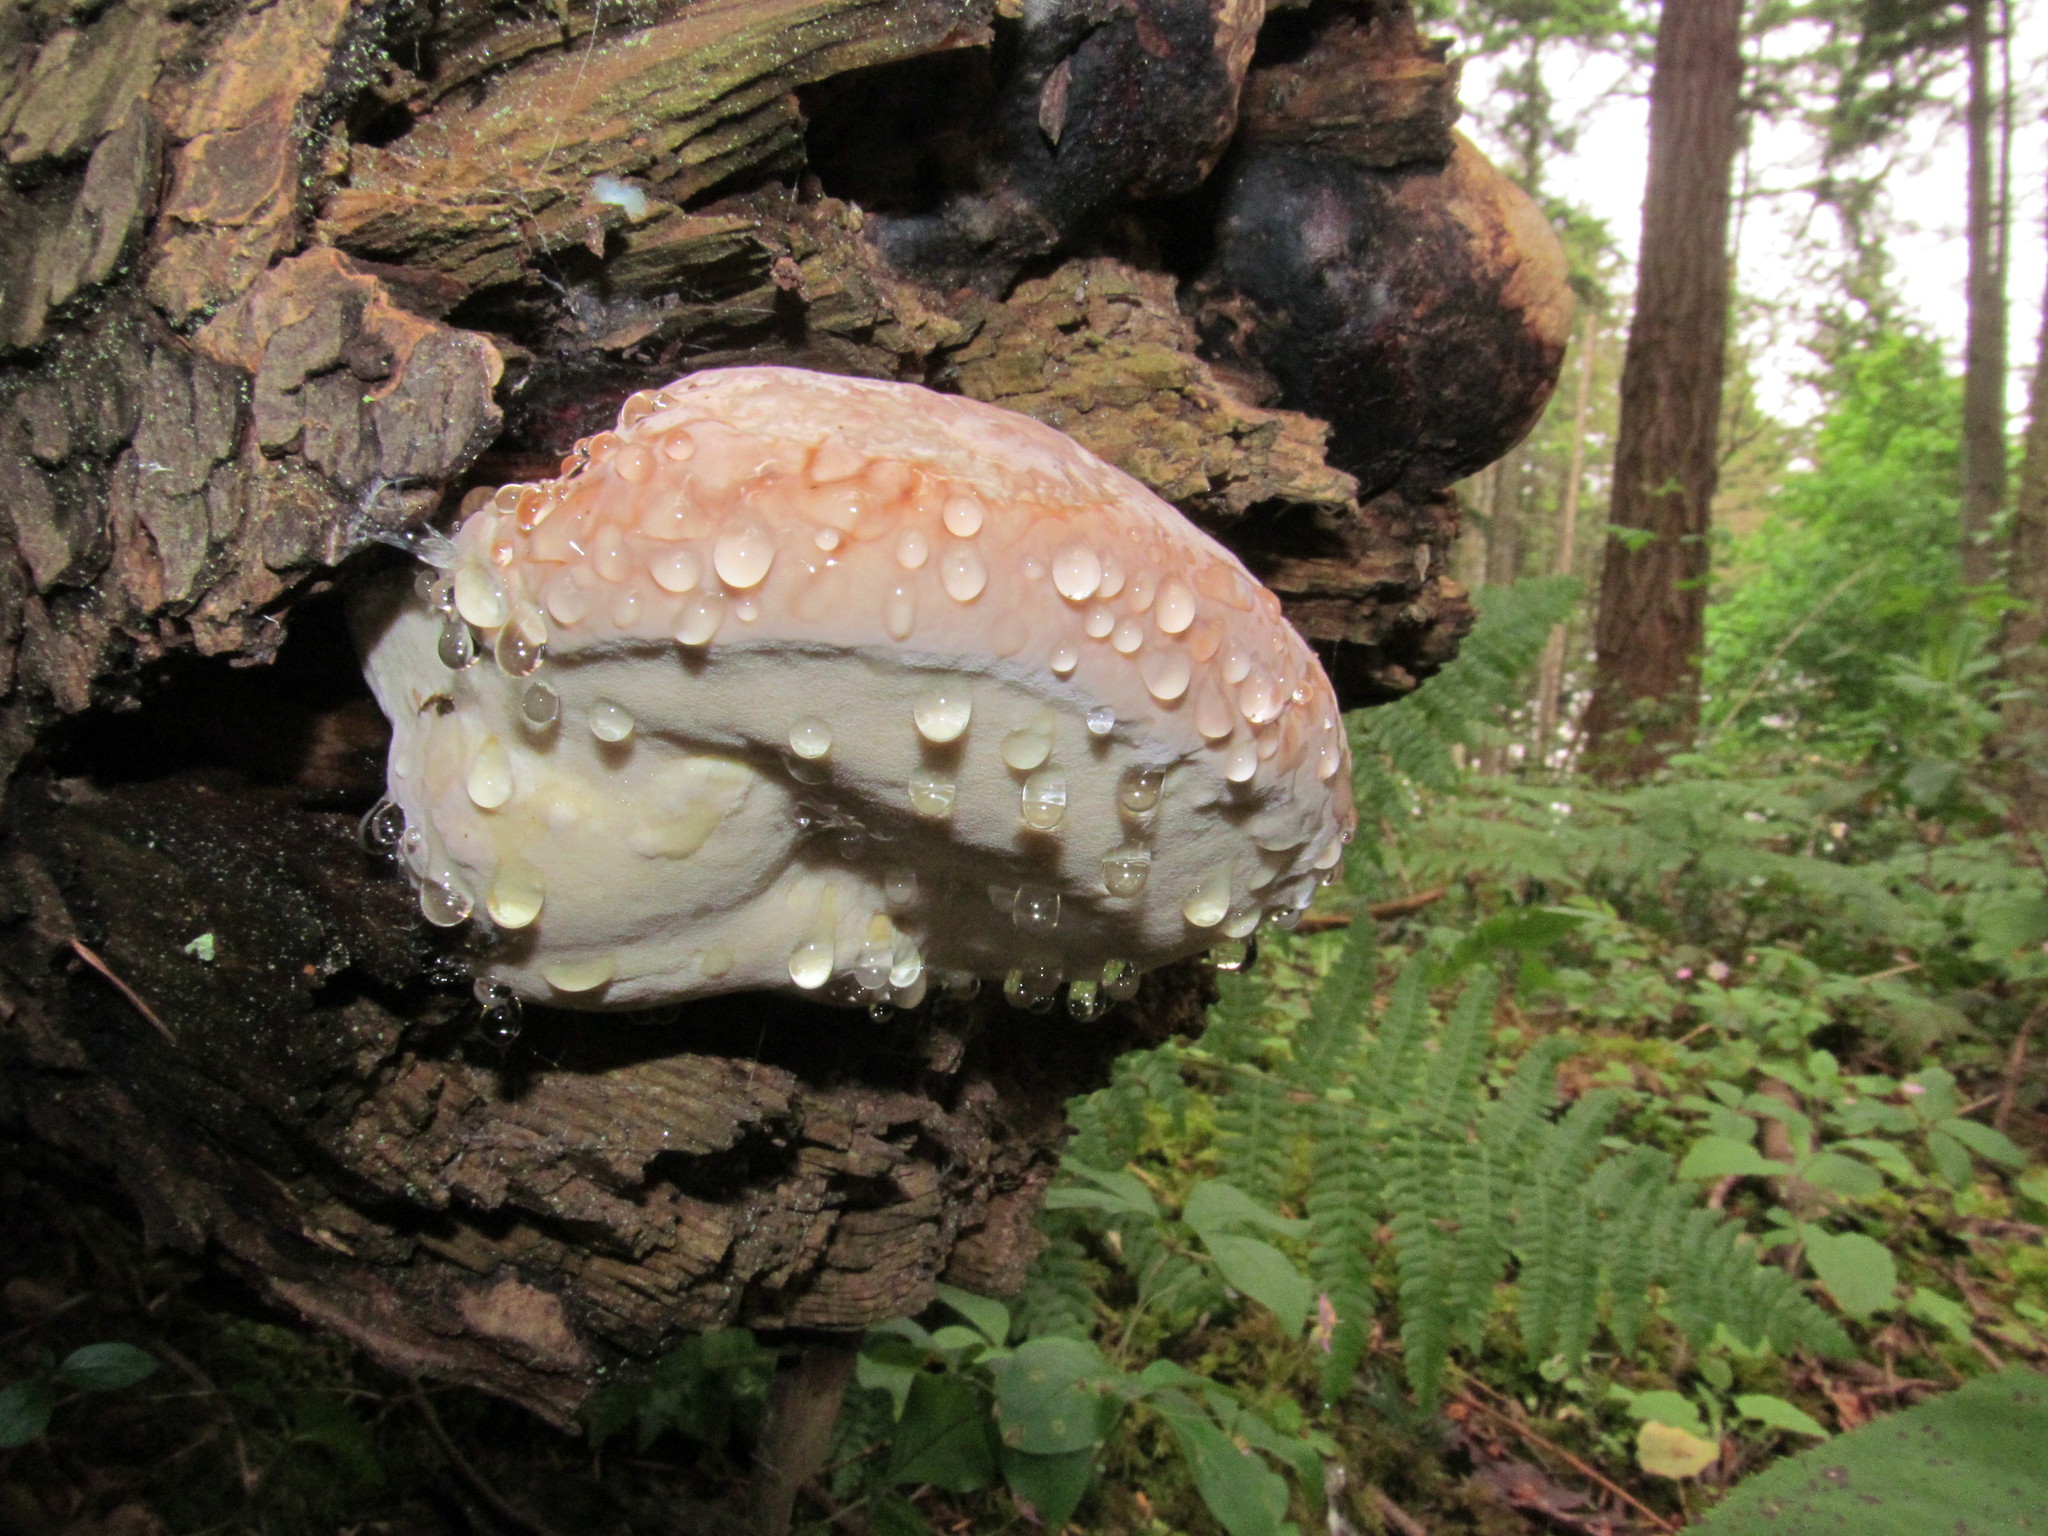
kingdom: Fungi
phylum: Basidiomycota
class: Agaricomycetes
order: Polyporales
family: Fomitopsidaceae
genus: Fomitopsis
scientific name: Fomitopsis mounceae
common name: Northern red belt
